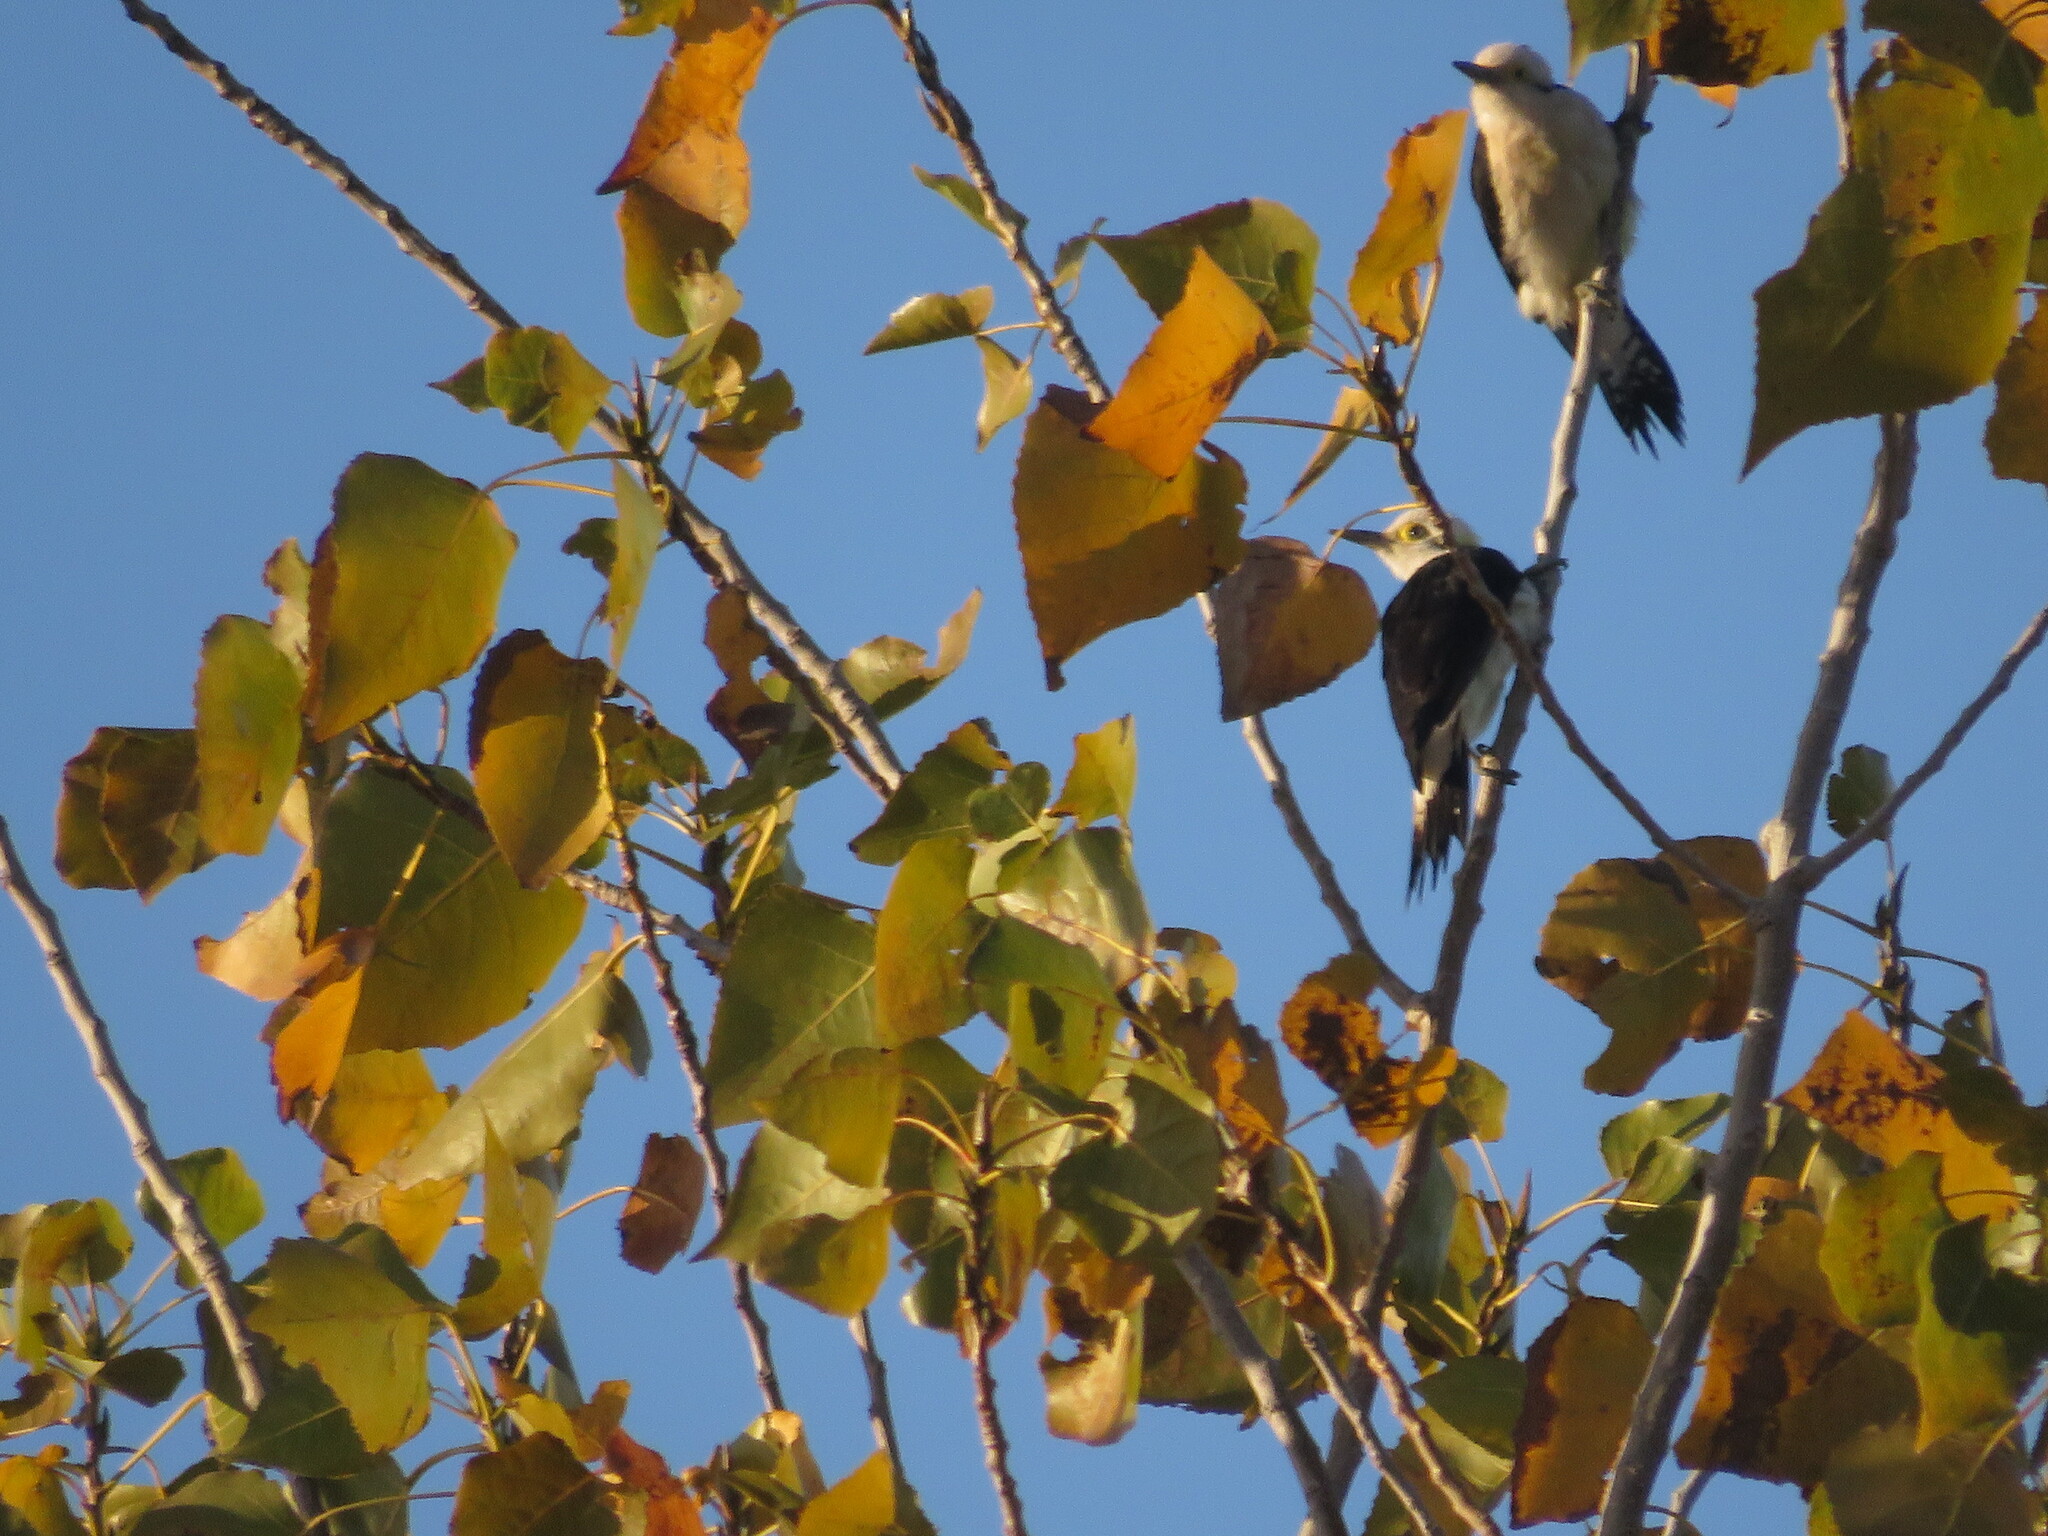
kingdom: Animalia
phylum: Chordata
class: Aves
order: Piciformes
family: Picidae
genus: Melanerpes
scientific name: Melanerpes candidus
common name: White woodpecker
